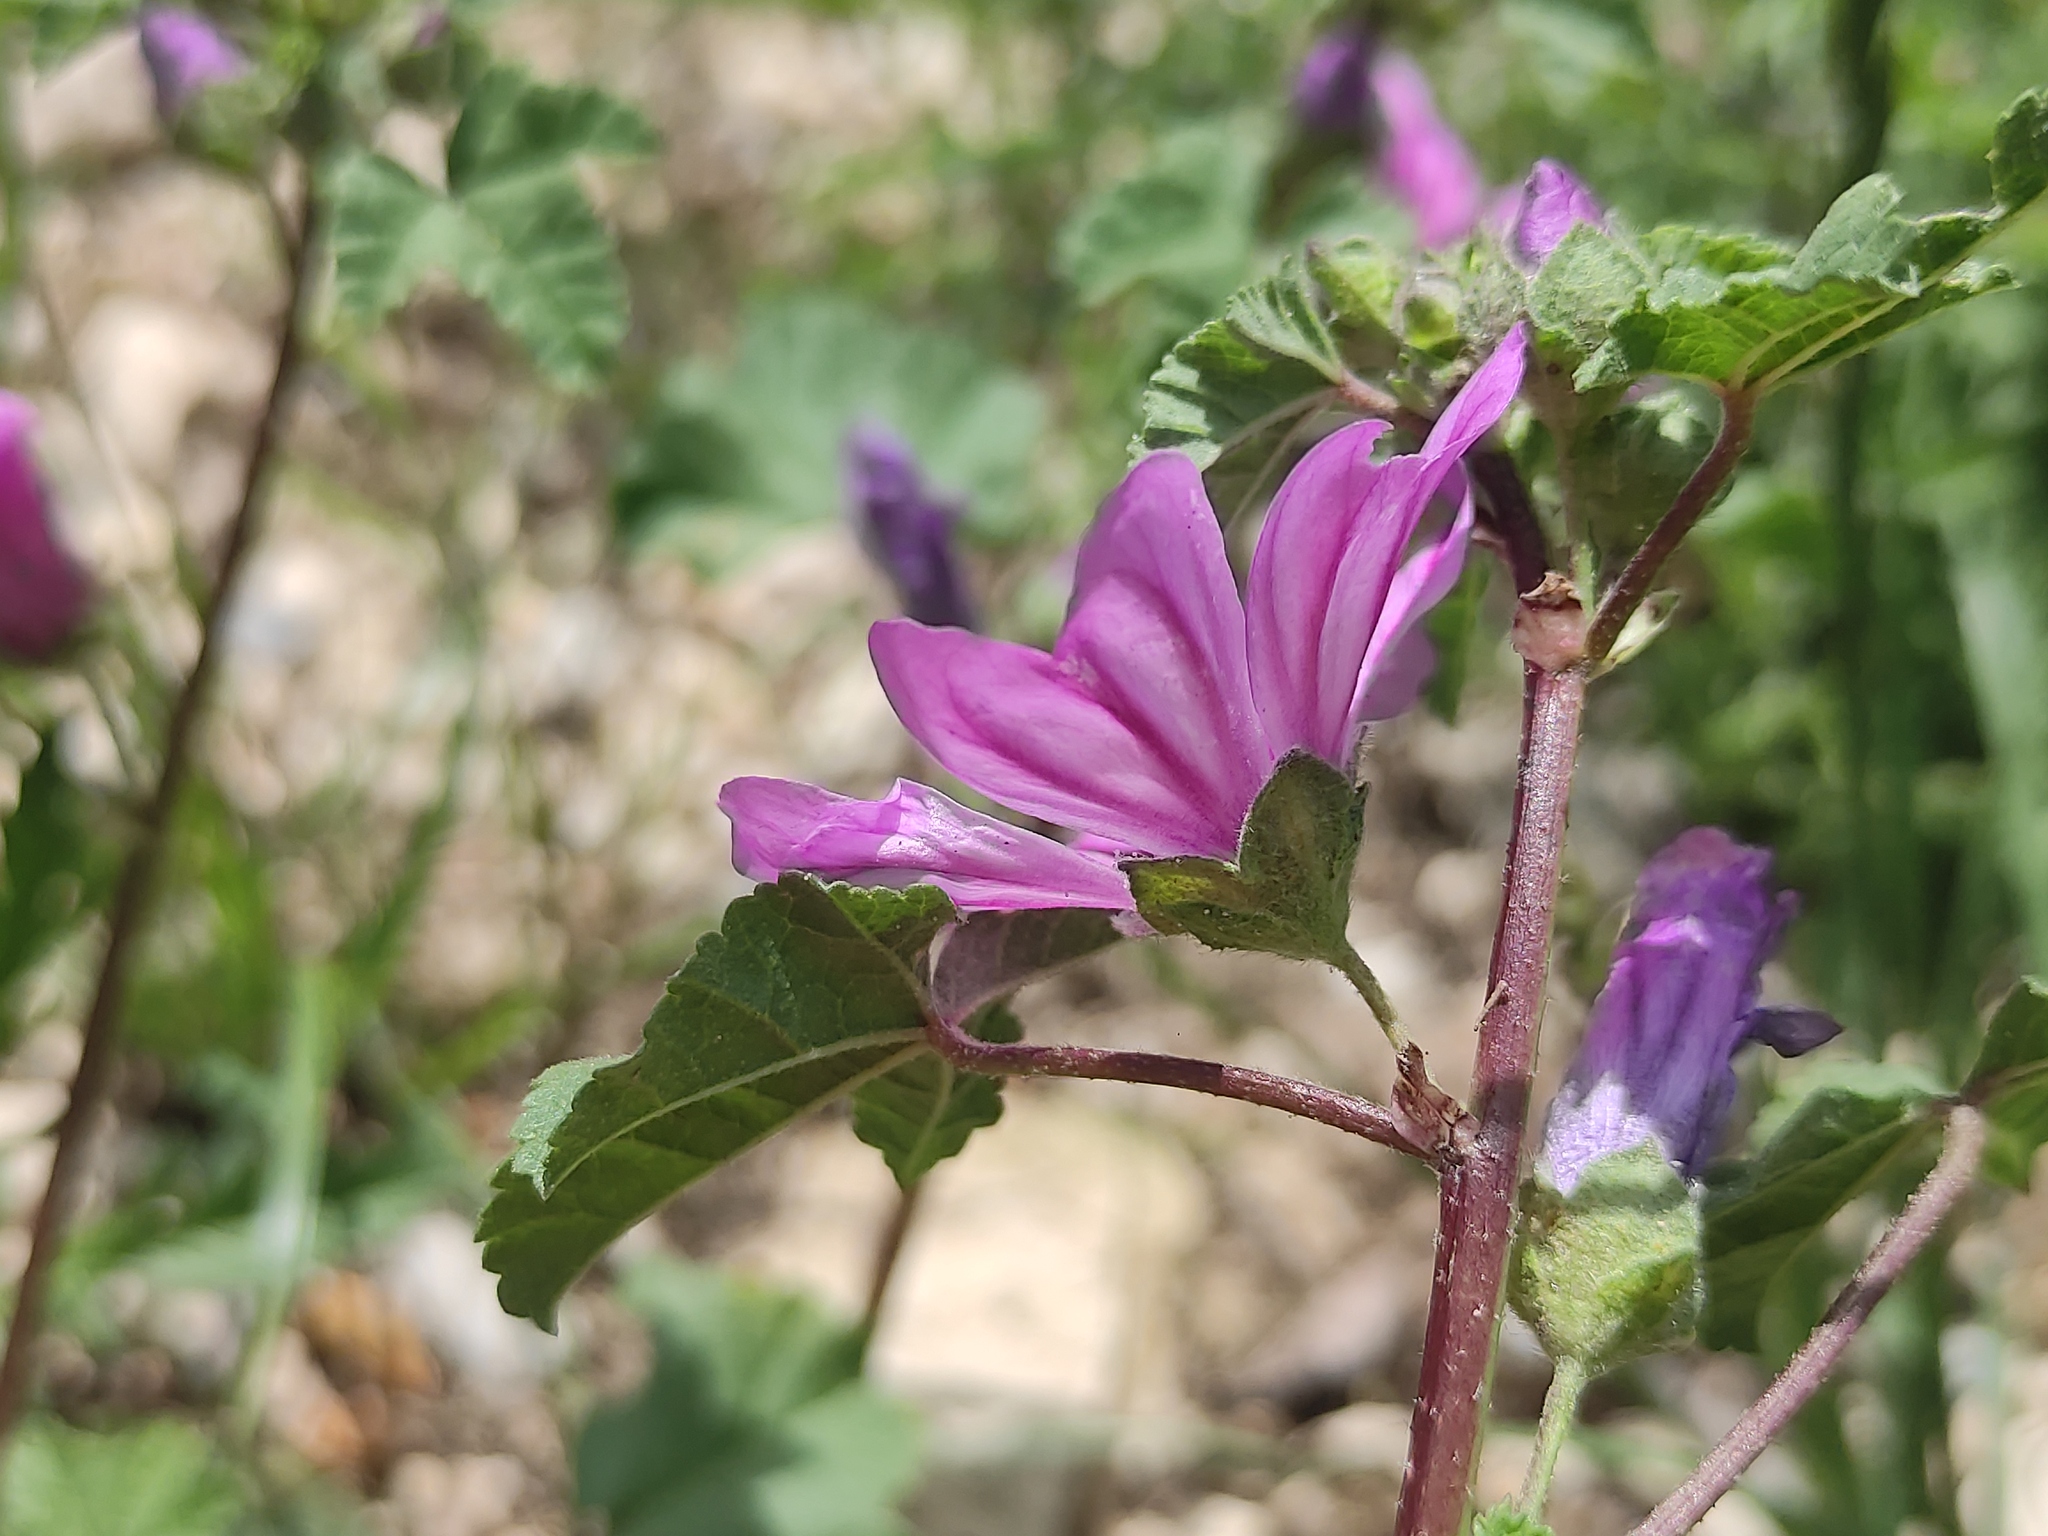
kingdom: Plantae
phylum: Tracheophyta
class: Magnoliopsida
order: Malvales
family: Malvaceae
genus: Malva
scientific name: Malva sylvestris
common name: Common mallow
